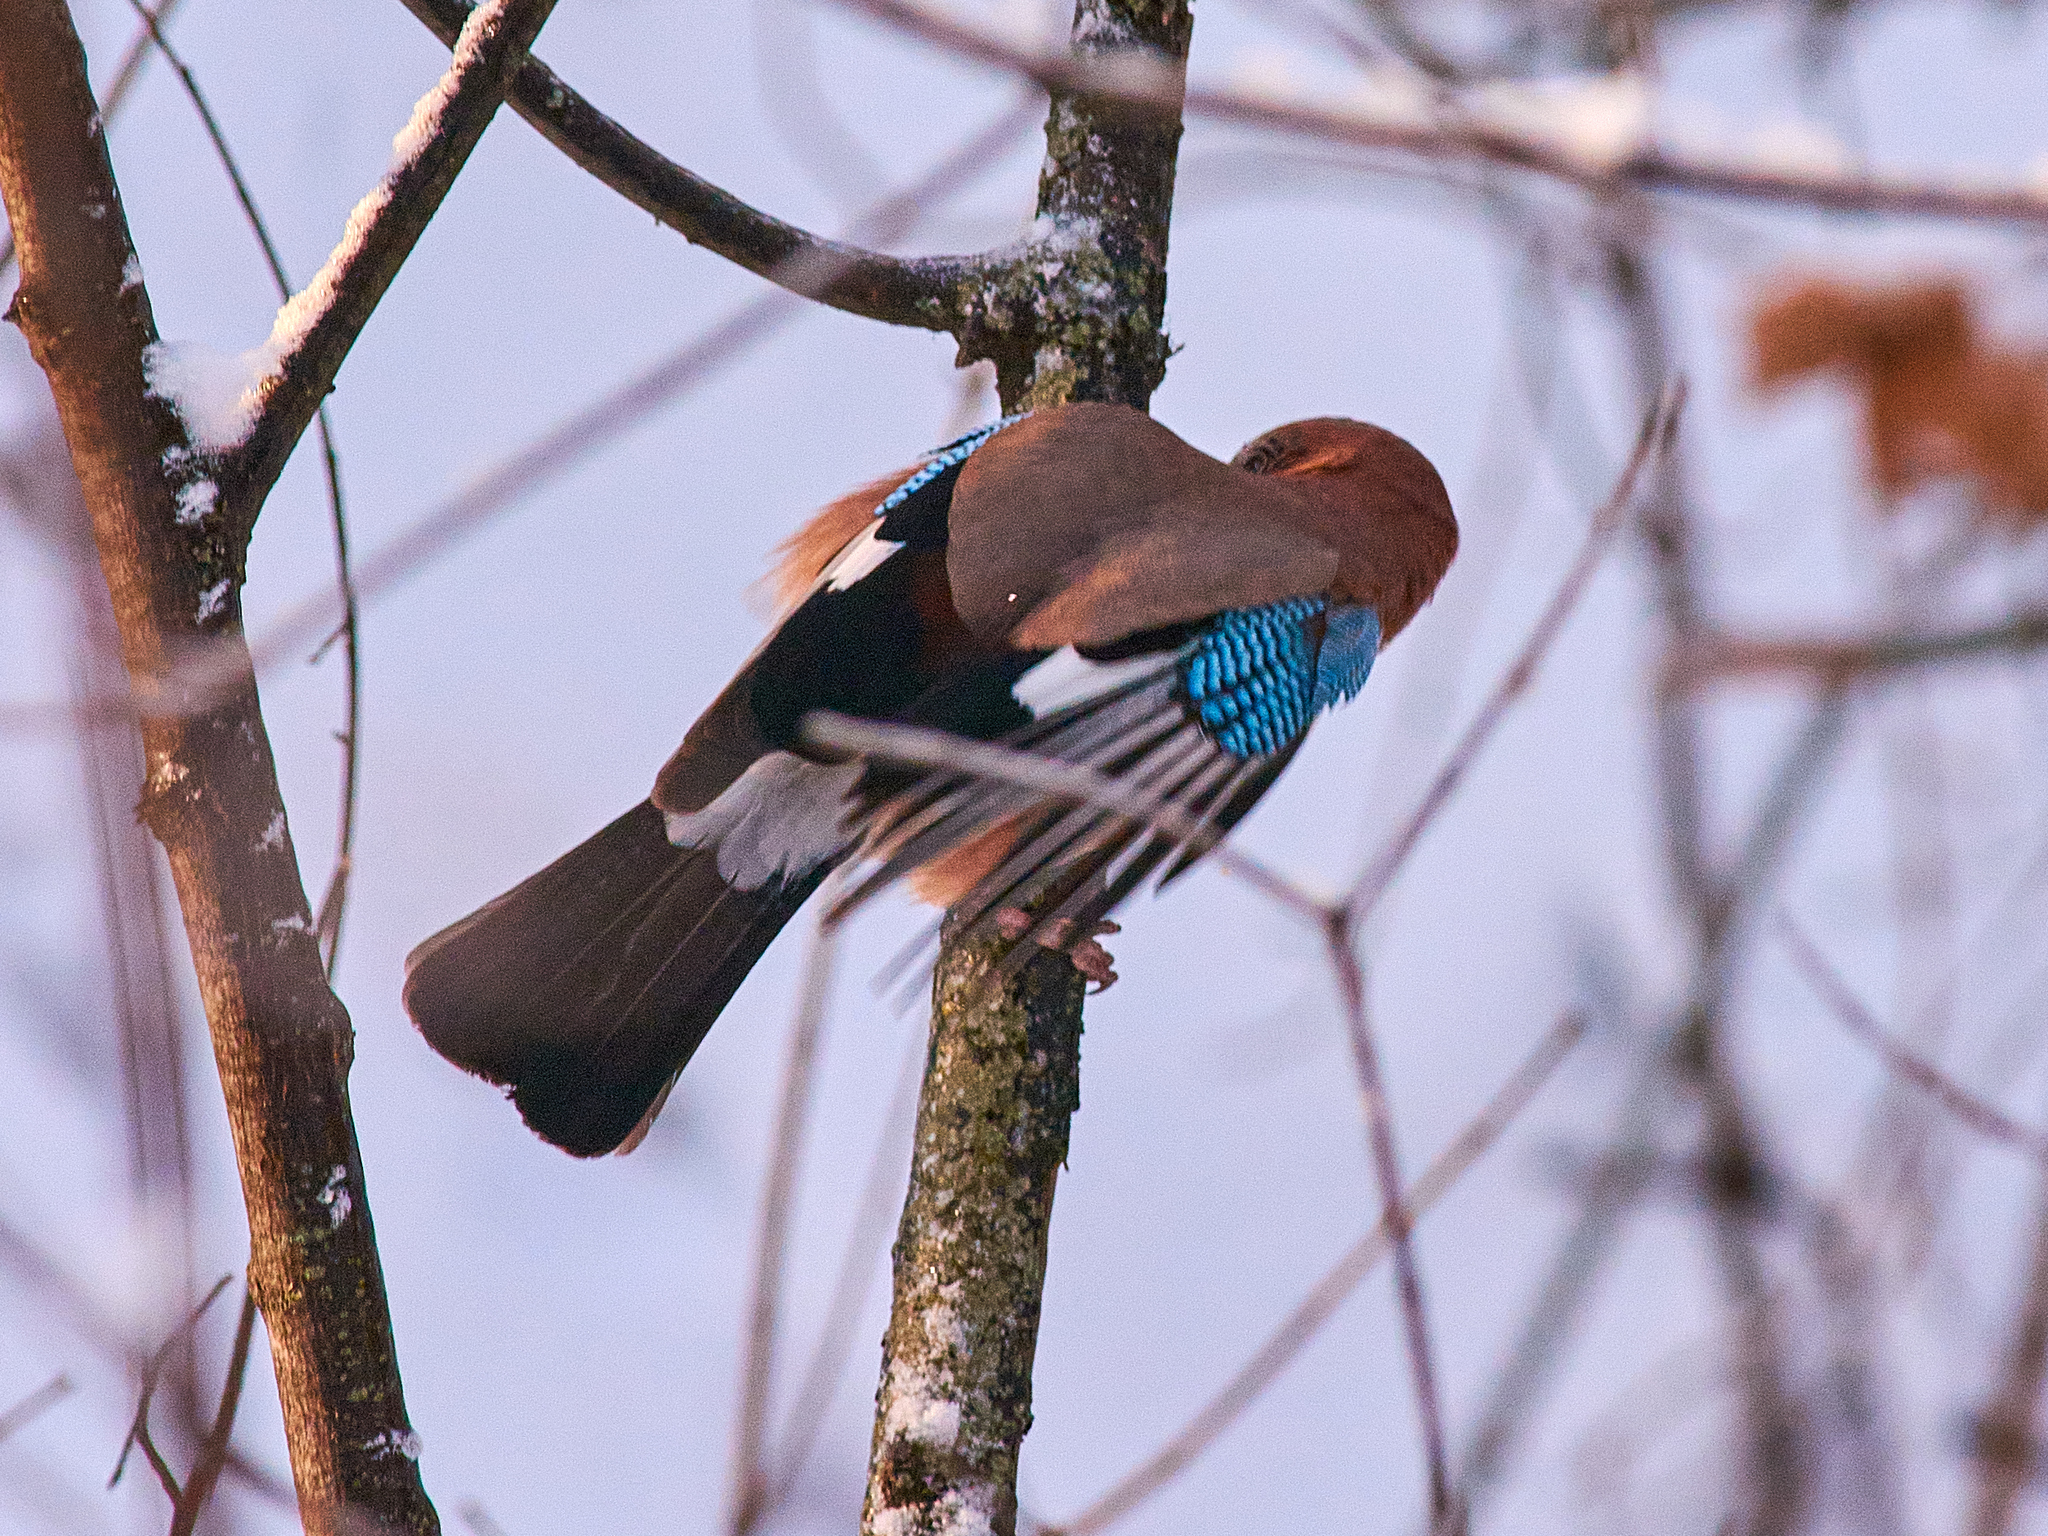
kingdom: Animalia
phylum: Chordata
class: Aves
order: Passeriformes
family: Corvidae
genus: Garrulus
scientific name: Garrulus glandarius
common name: Eurasian jay
